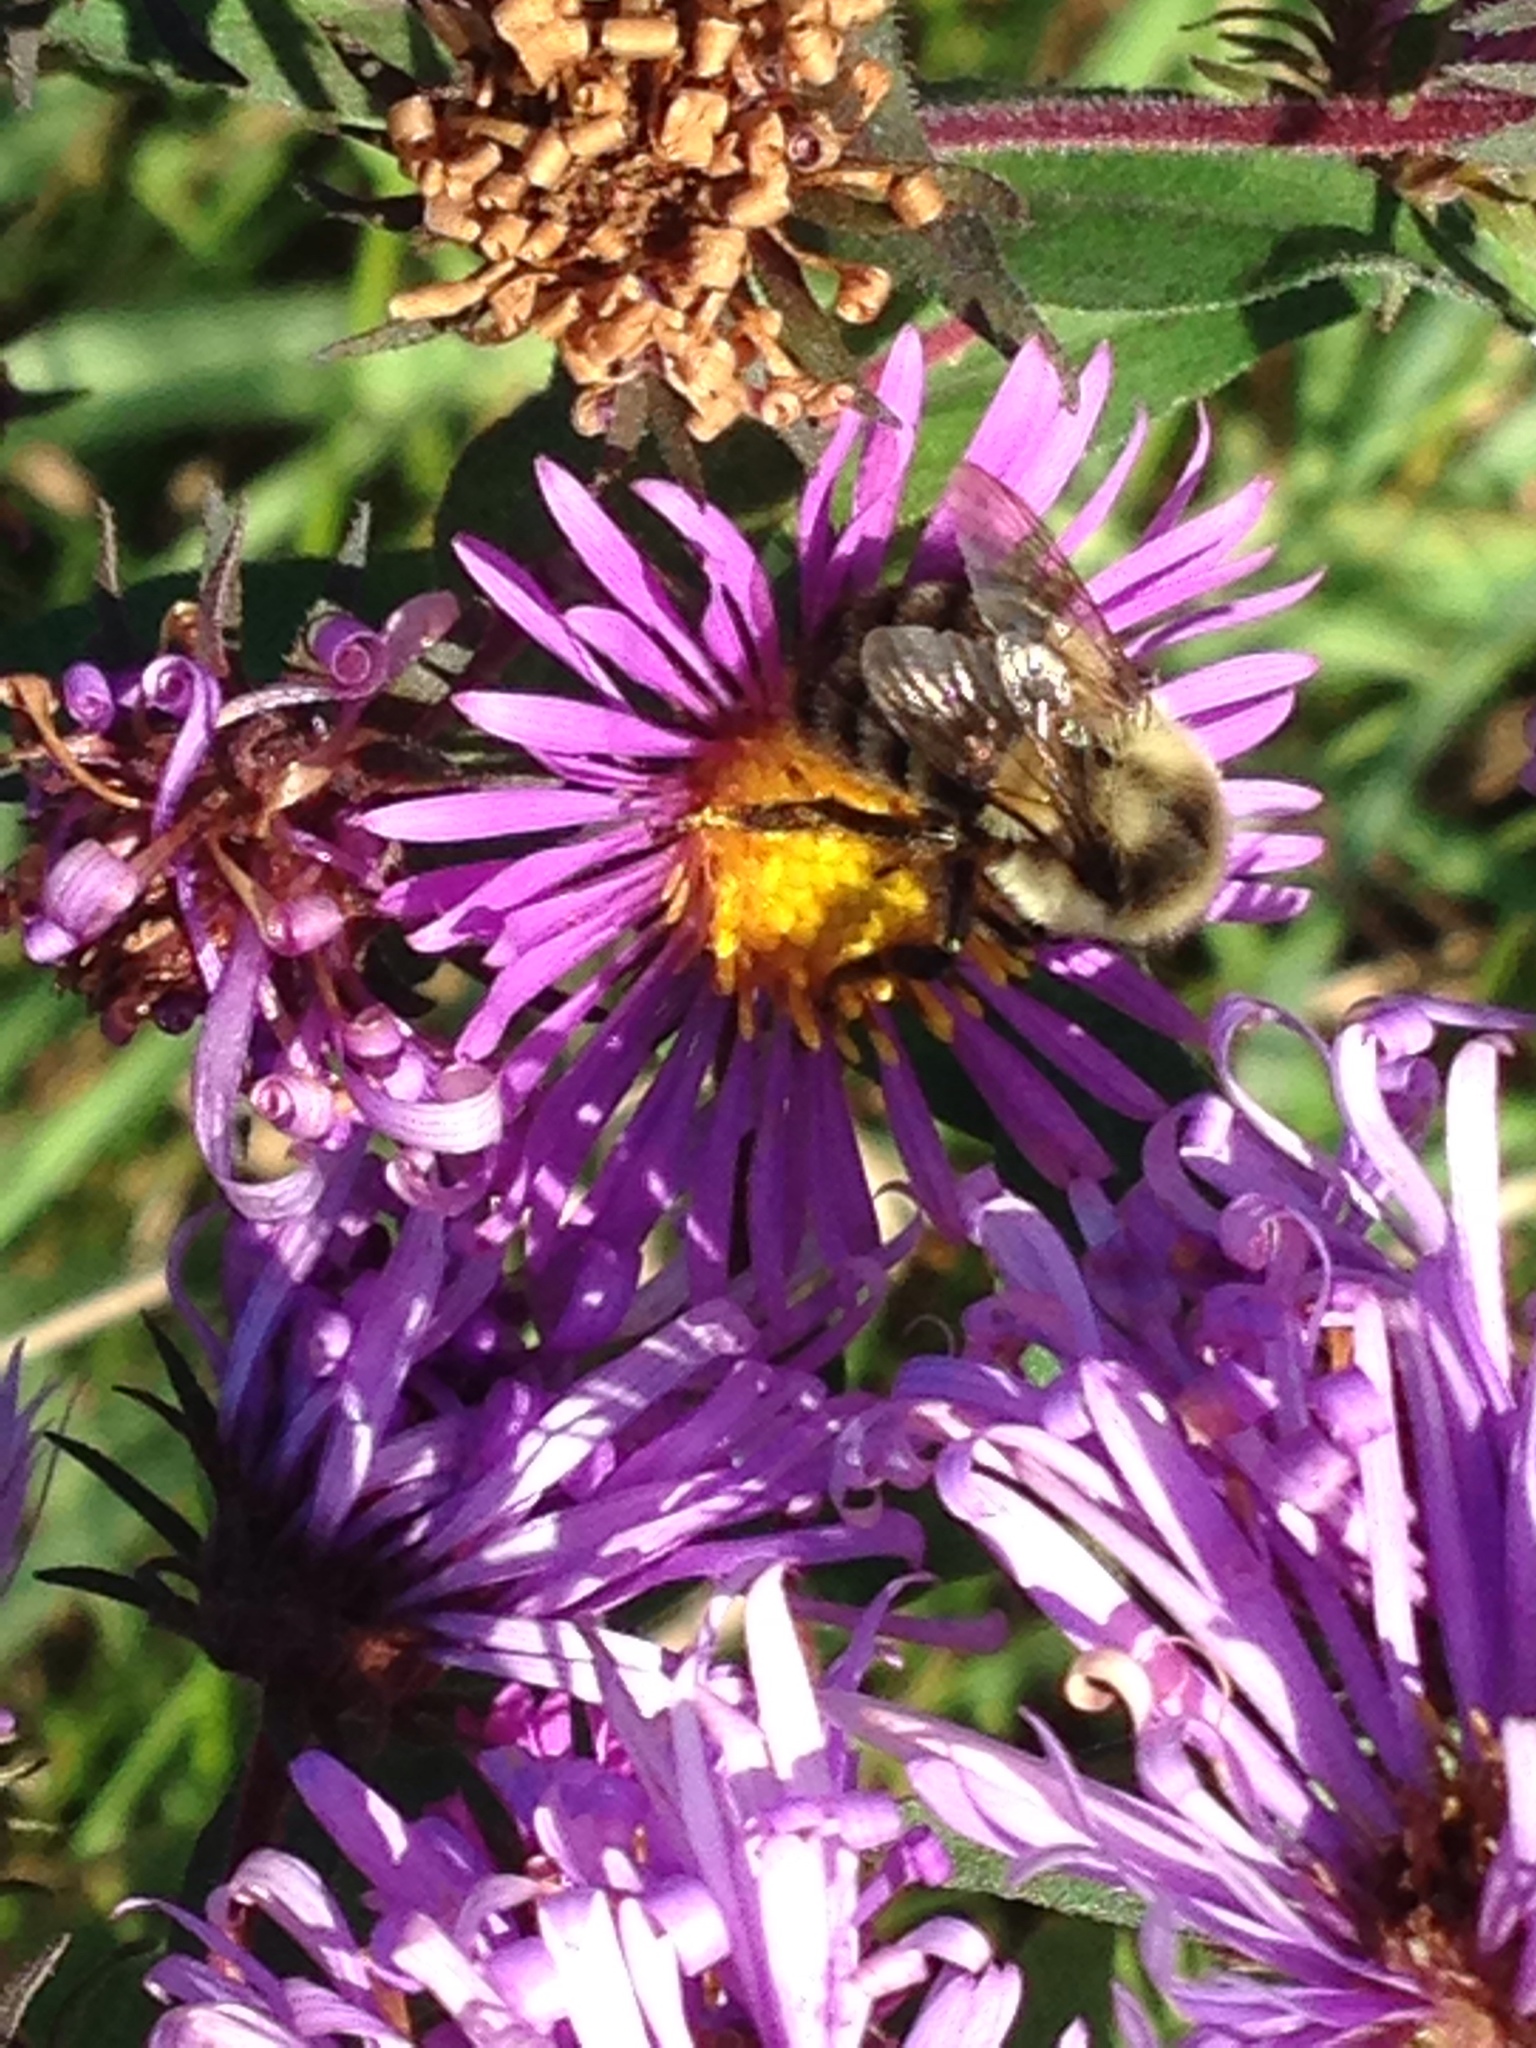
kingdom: Animalia
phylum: Arthropoda
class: Insecta
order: Hymenoptera
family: Apidae
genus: Bombus
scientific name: Bombus impatiens
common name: Common eastern bumble bee
